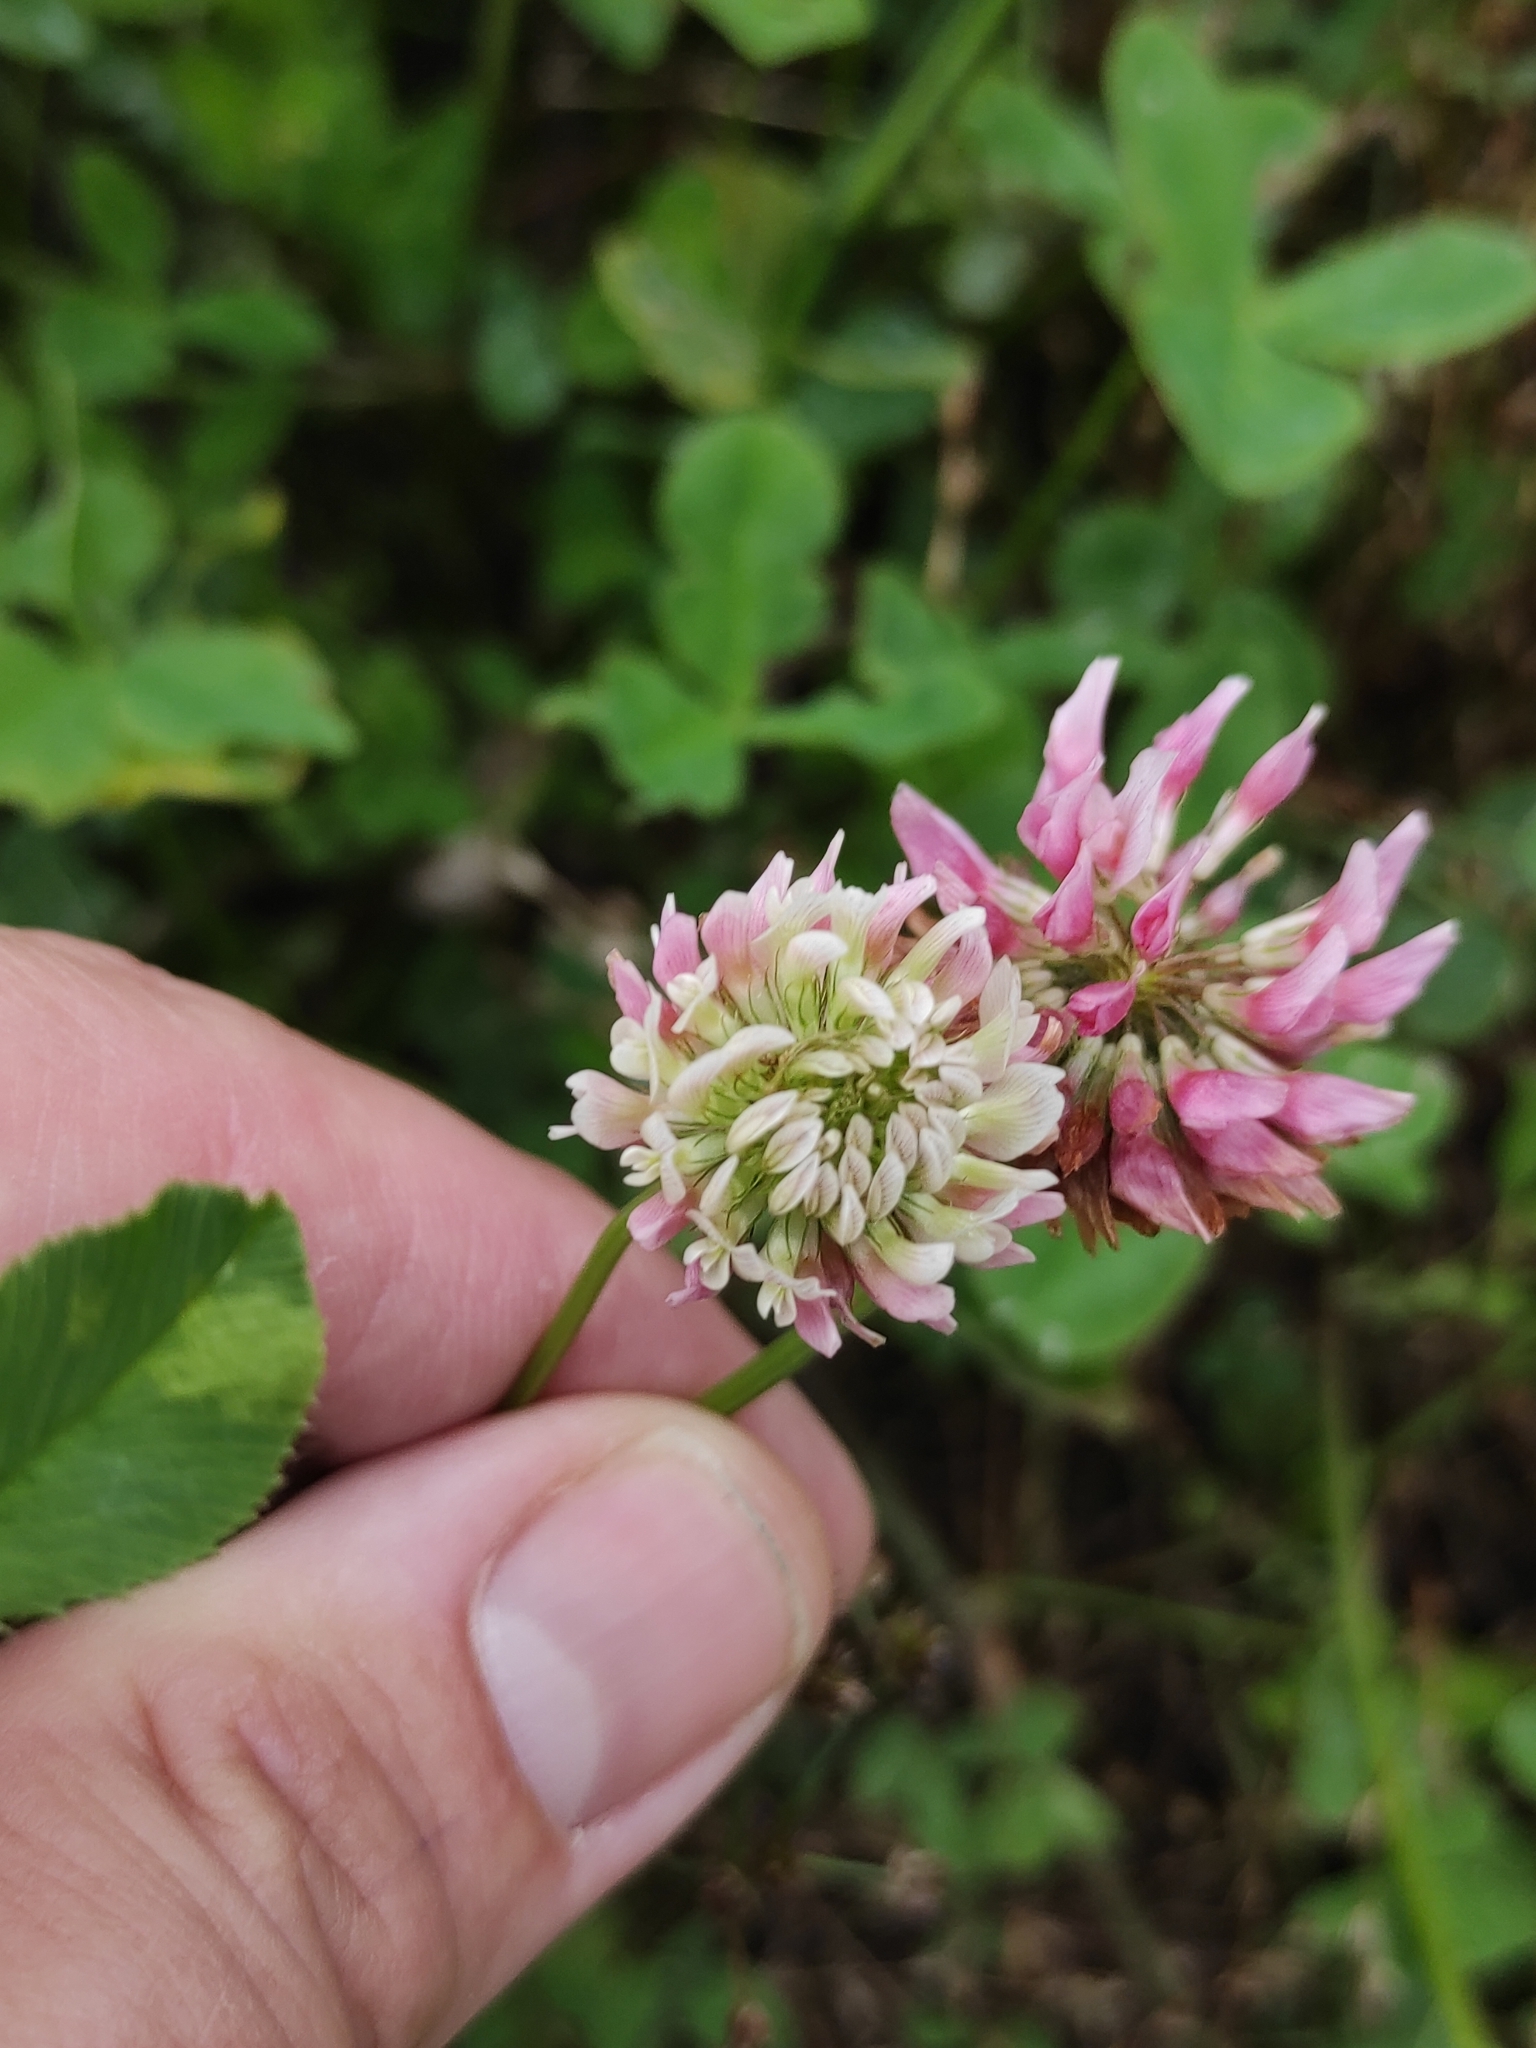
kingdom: Plantae
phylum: Tracheophyta
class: Magnoliopsida
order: Fabales
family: Fabaceae
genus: Trifolium
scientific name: Trifolium hybridum
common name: Alsike clover
